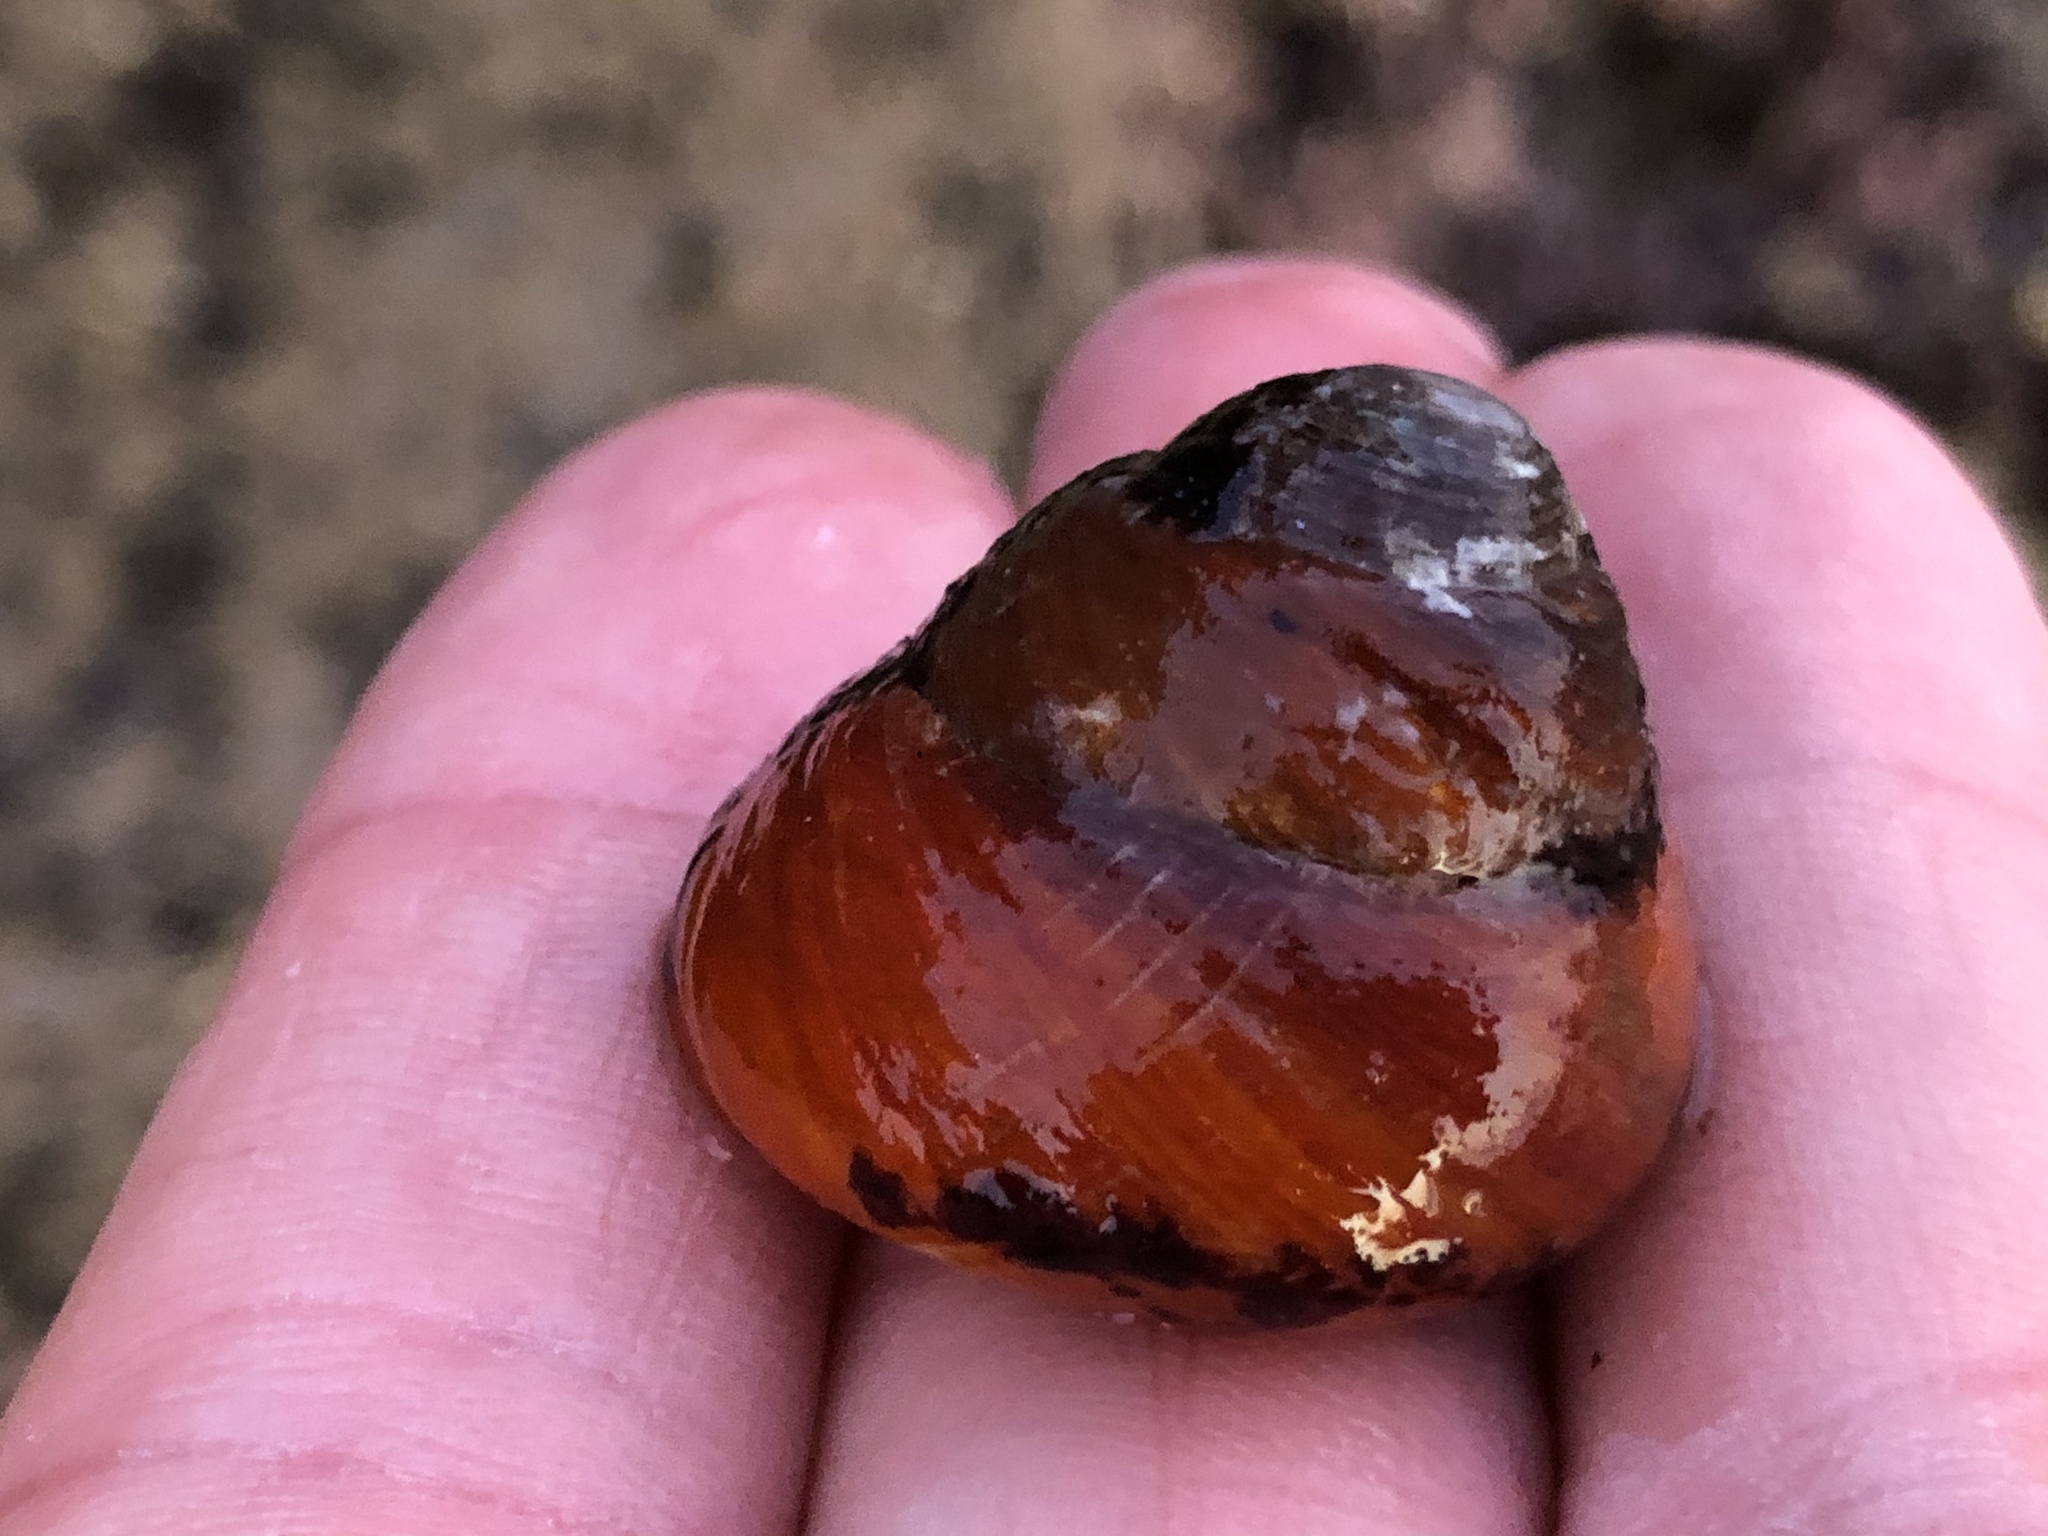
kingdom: Animalia
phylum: Mollusca
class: Gastropoda
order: Trochida
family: Tegulidae
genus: Tegula
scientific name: Tegula brunnea
